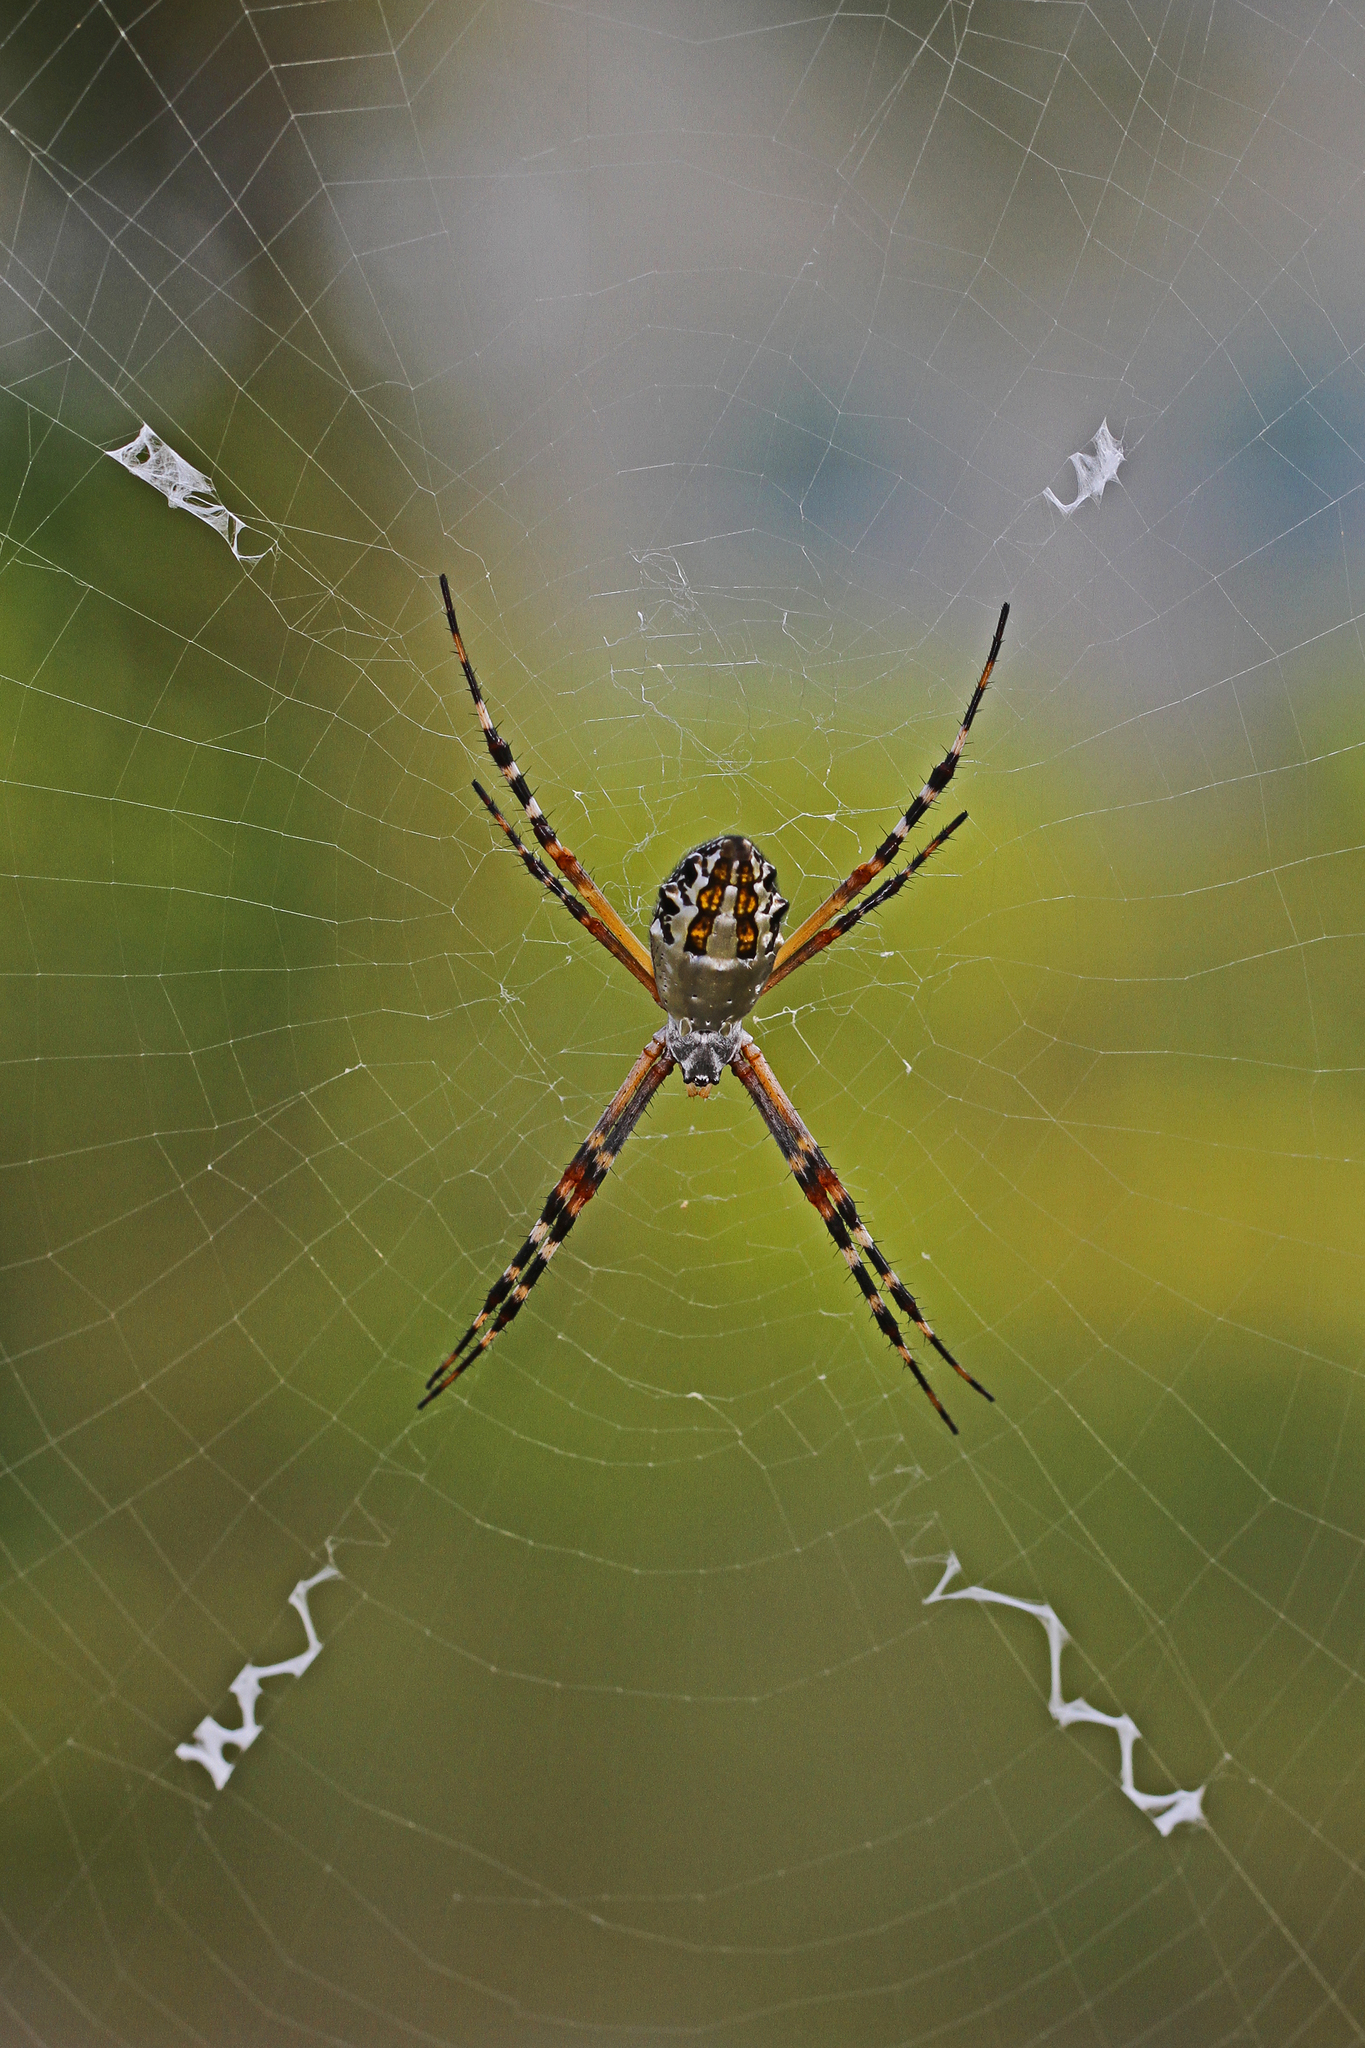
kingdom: Animalia
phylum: Arthropoda
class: Arachnida
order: Araneae
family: Araneidae
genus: Argiope
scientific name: Argiope florida
